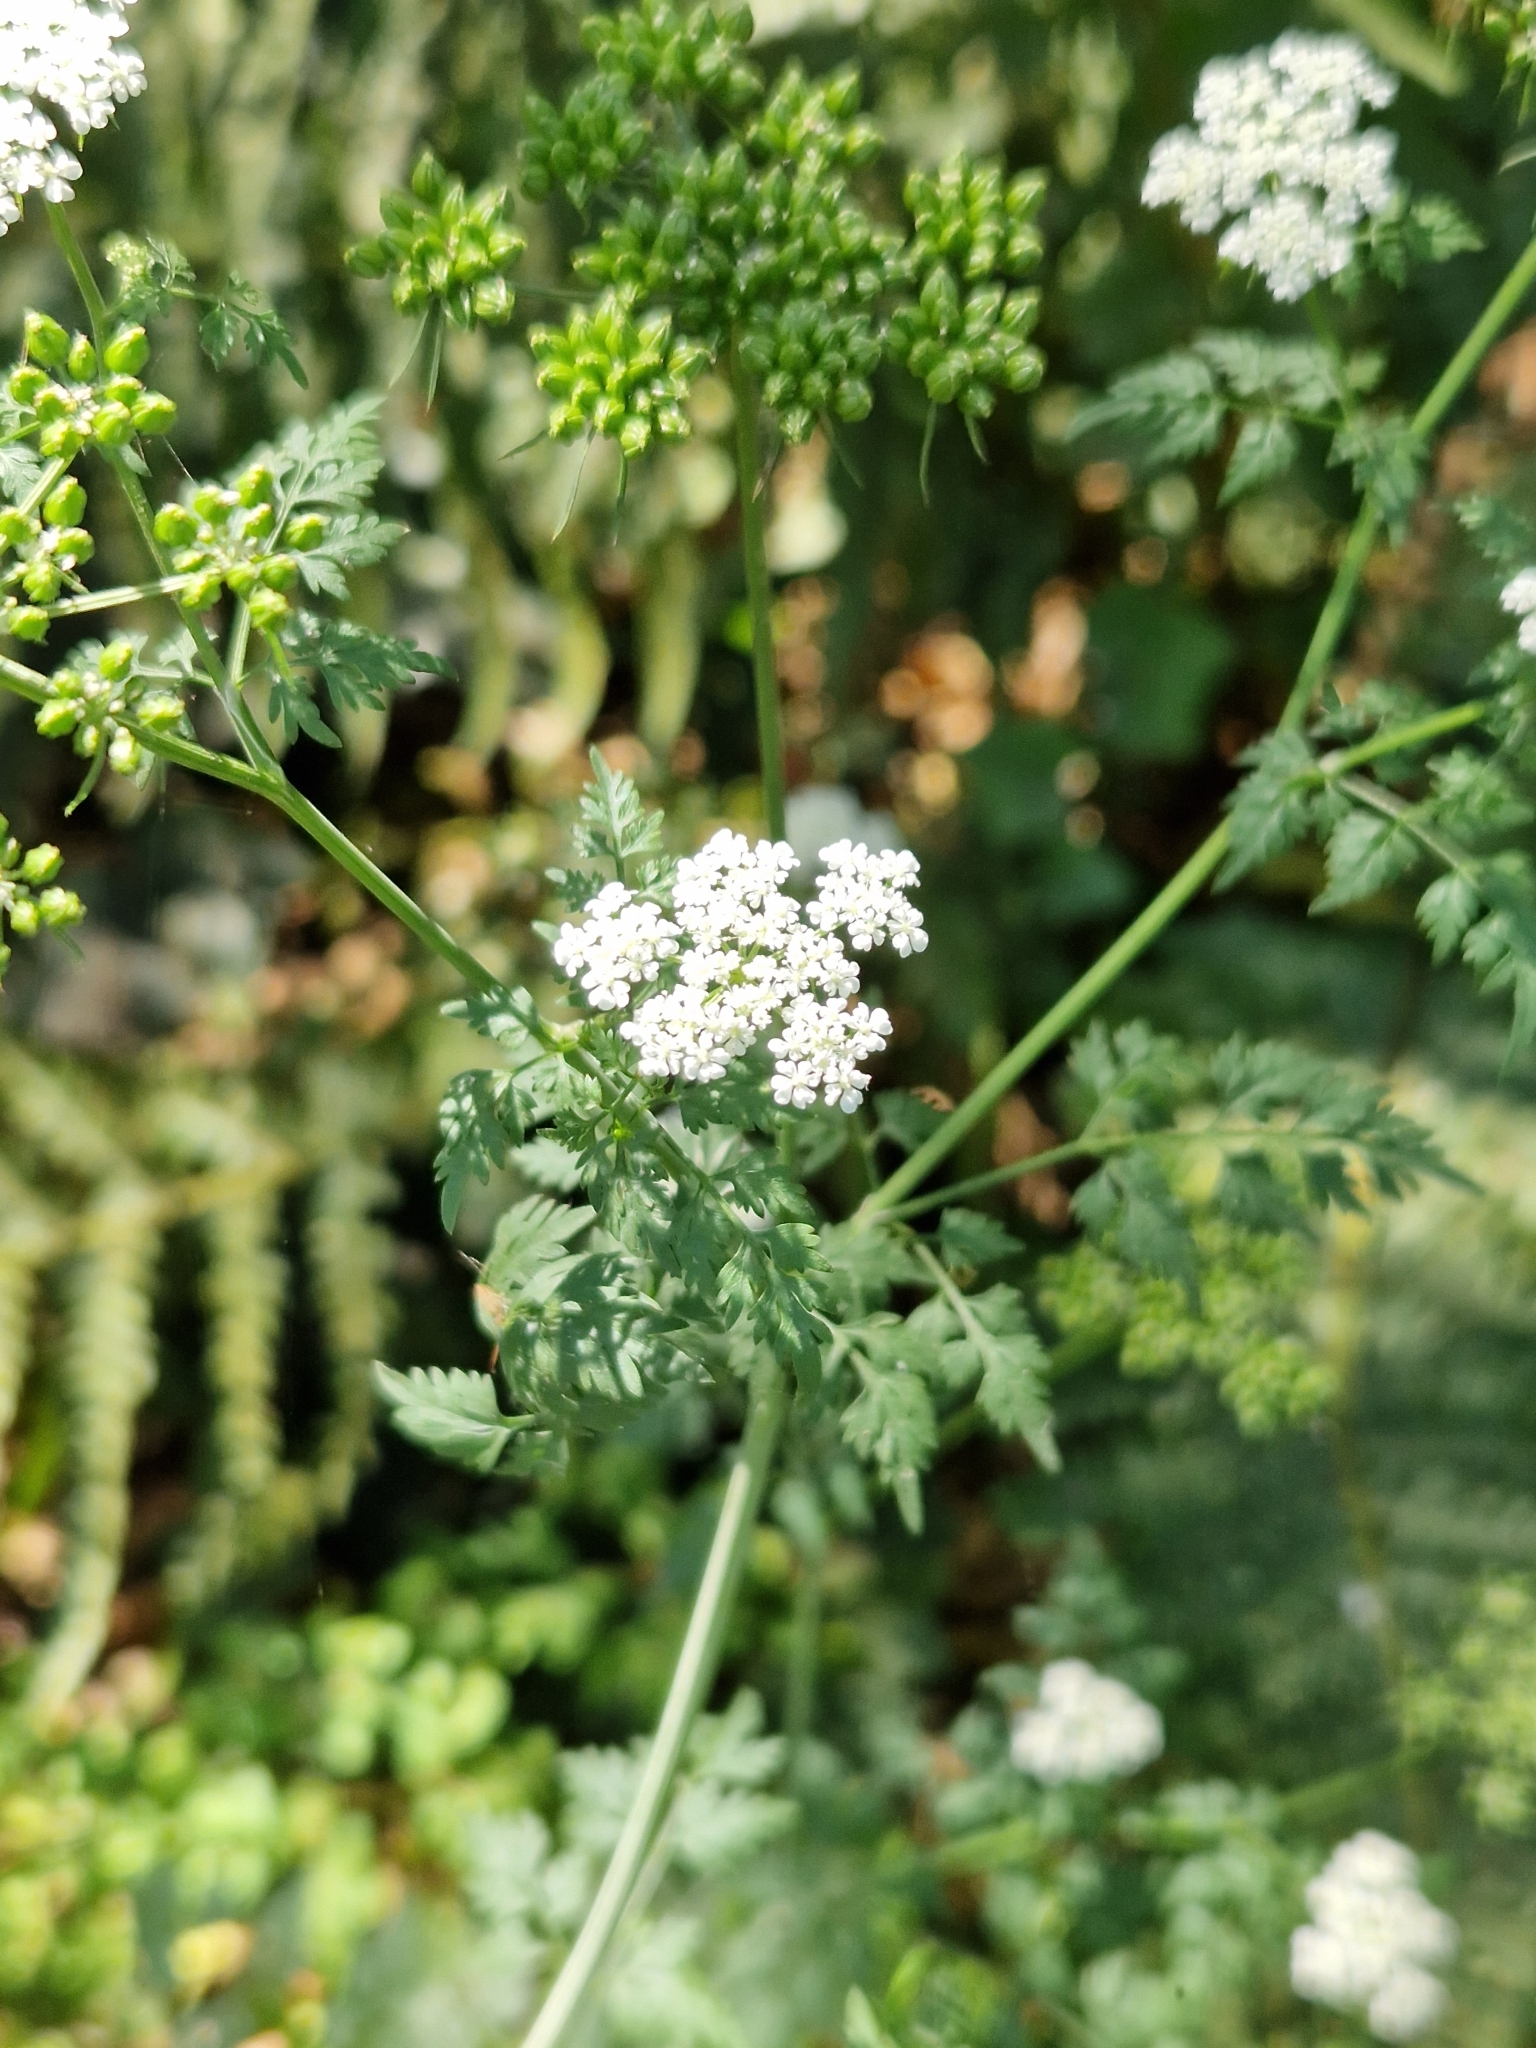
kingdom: Plantae
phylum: Tracheophyta
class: Magnoliopsida
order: Apiales
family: Apiaceae
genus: Aethusa
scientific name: Aethusa cynapium
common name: Fool's parsley
